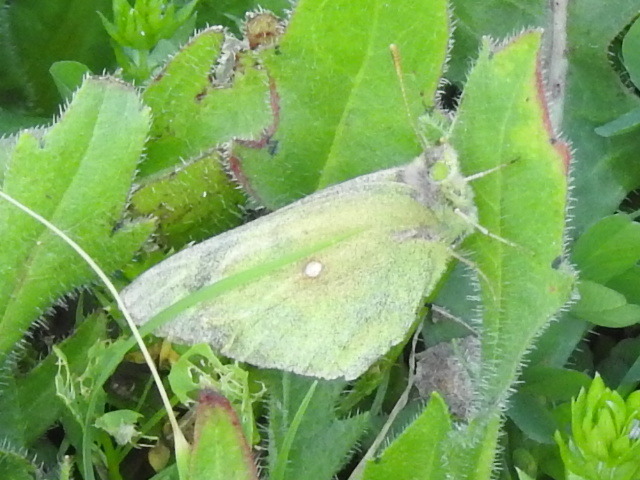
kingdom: Animalia
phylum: Arthropoda
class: Insecta
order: Lepidoptera
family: Pieridae
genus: Colias
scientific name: Colias eurytheme
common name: Alfalfa butterfly
